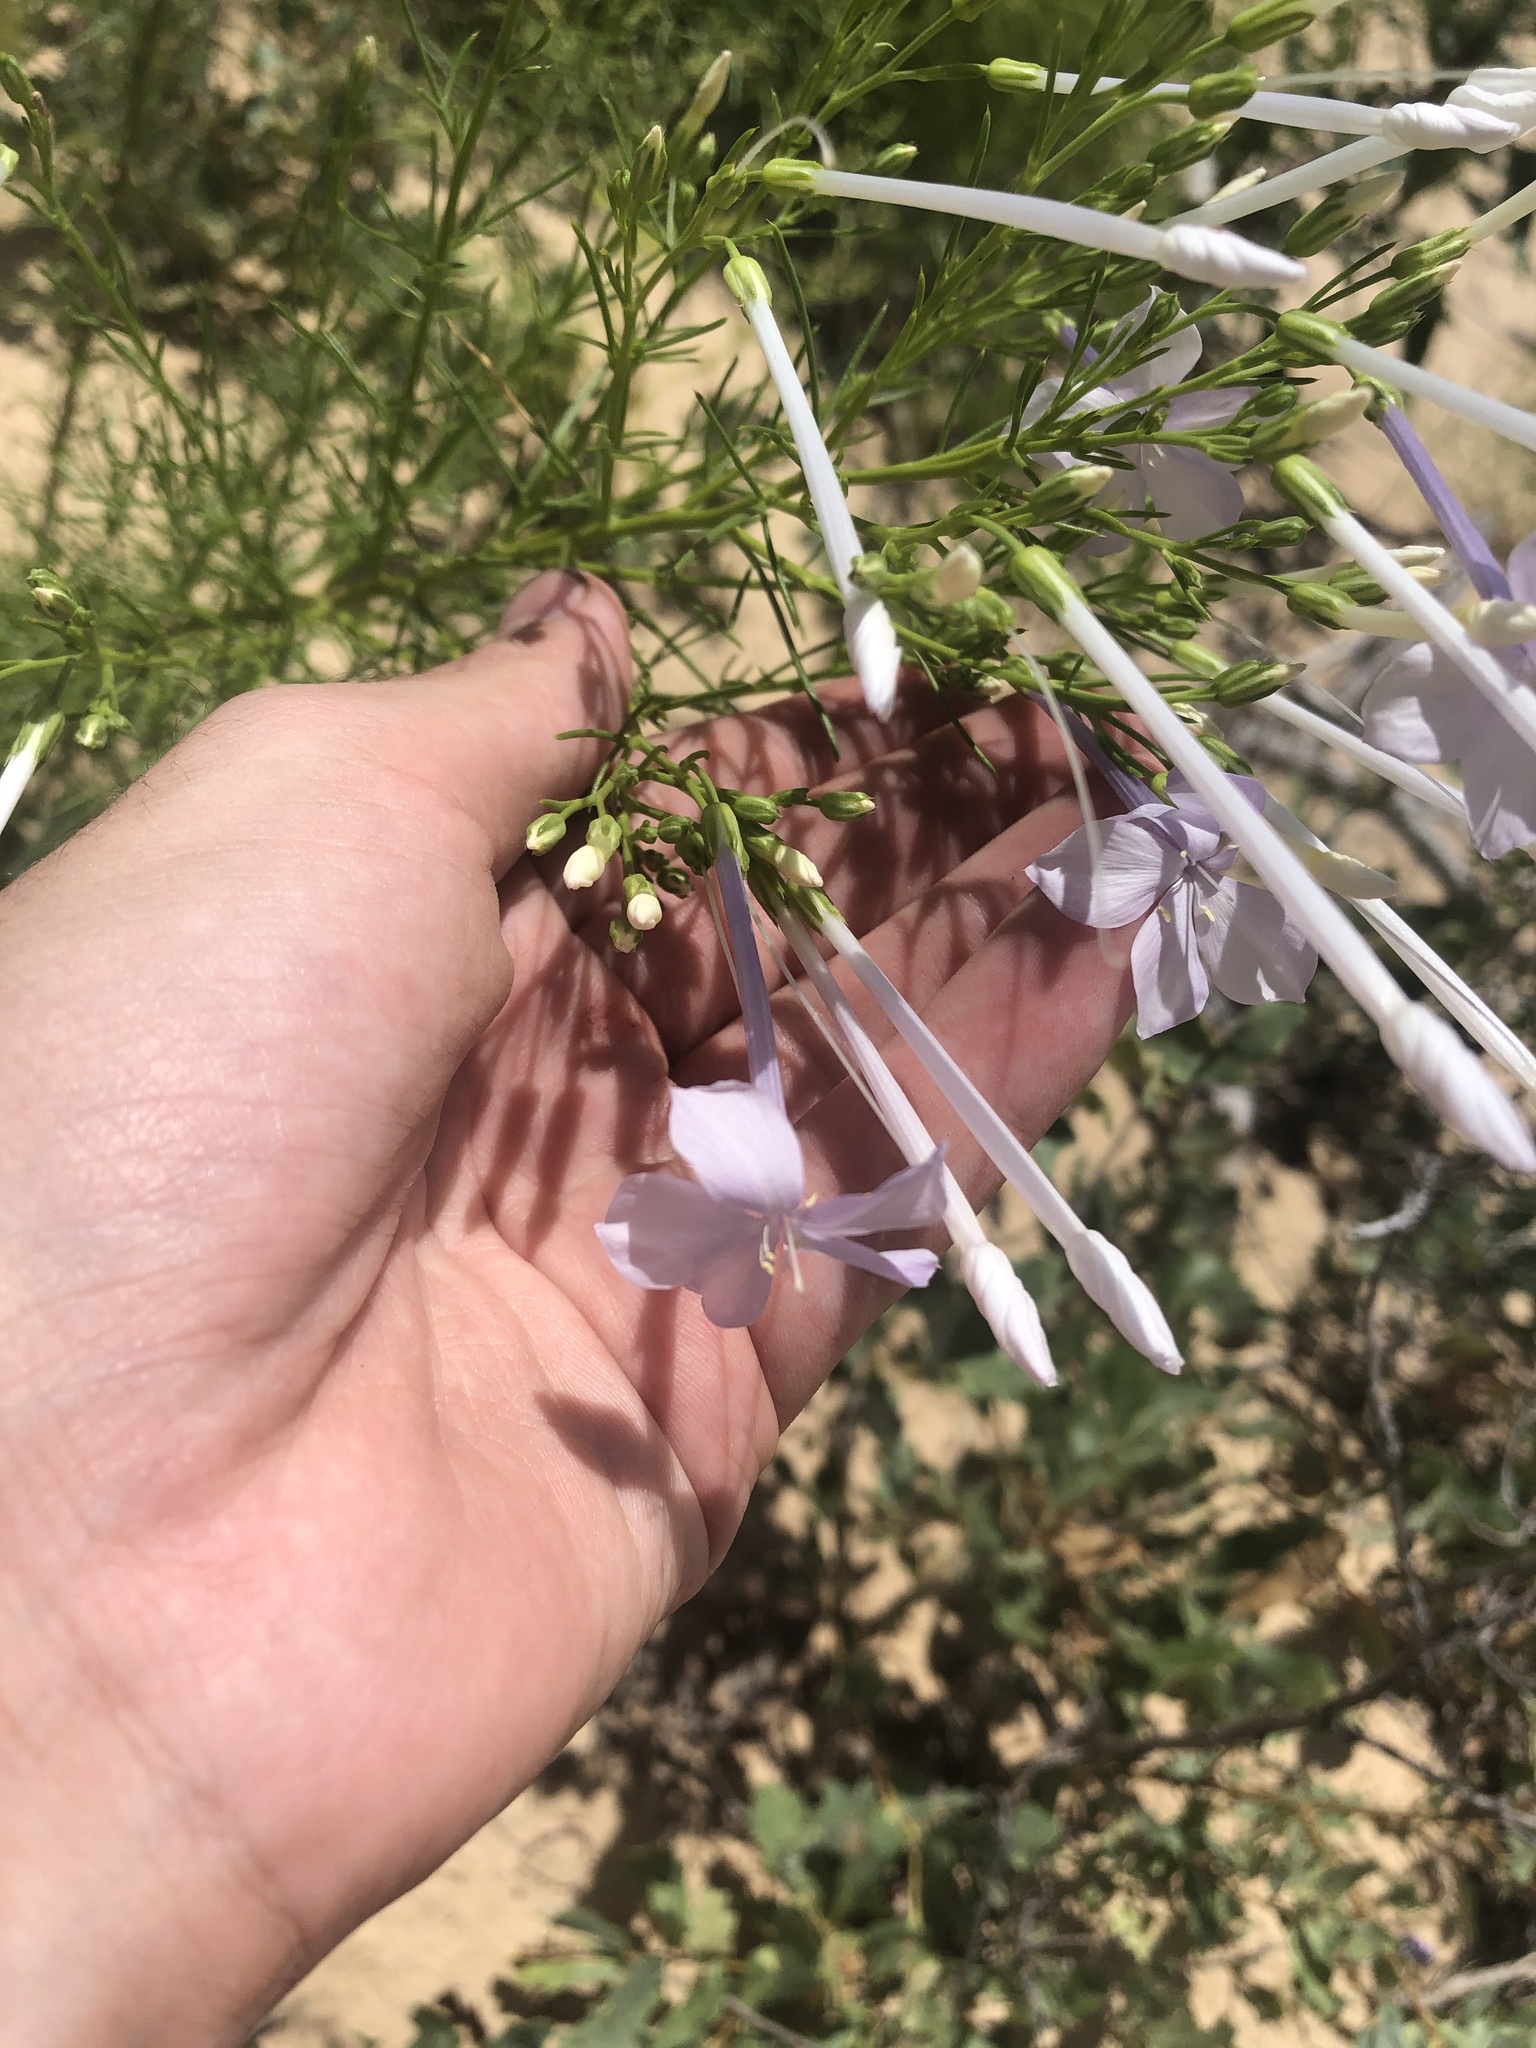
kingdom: Plantae
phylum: Tracheophyta
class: Magnoliopsida
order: Ericales
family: Polemoniaceae
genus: Ipomopsis
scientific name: Ipomopsis longiflora
